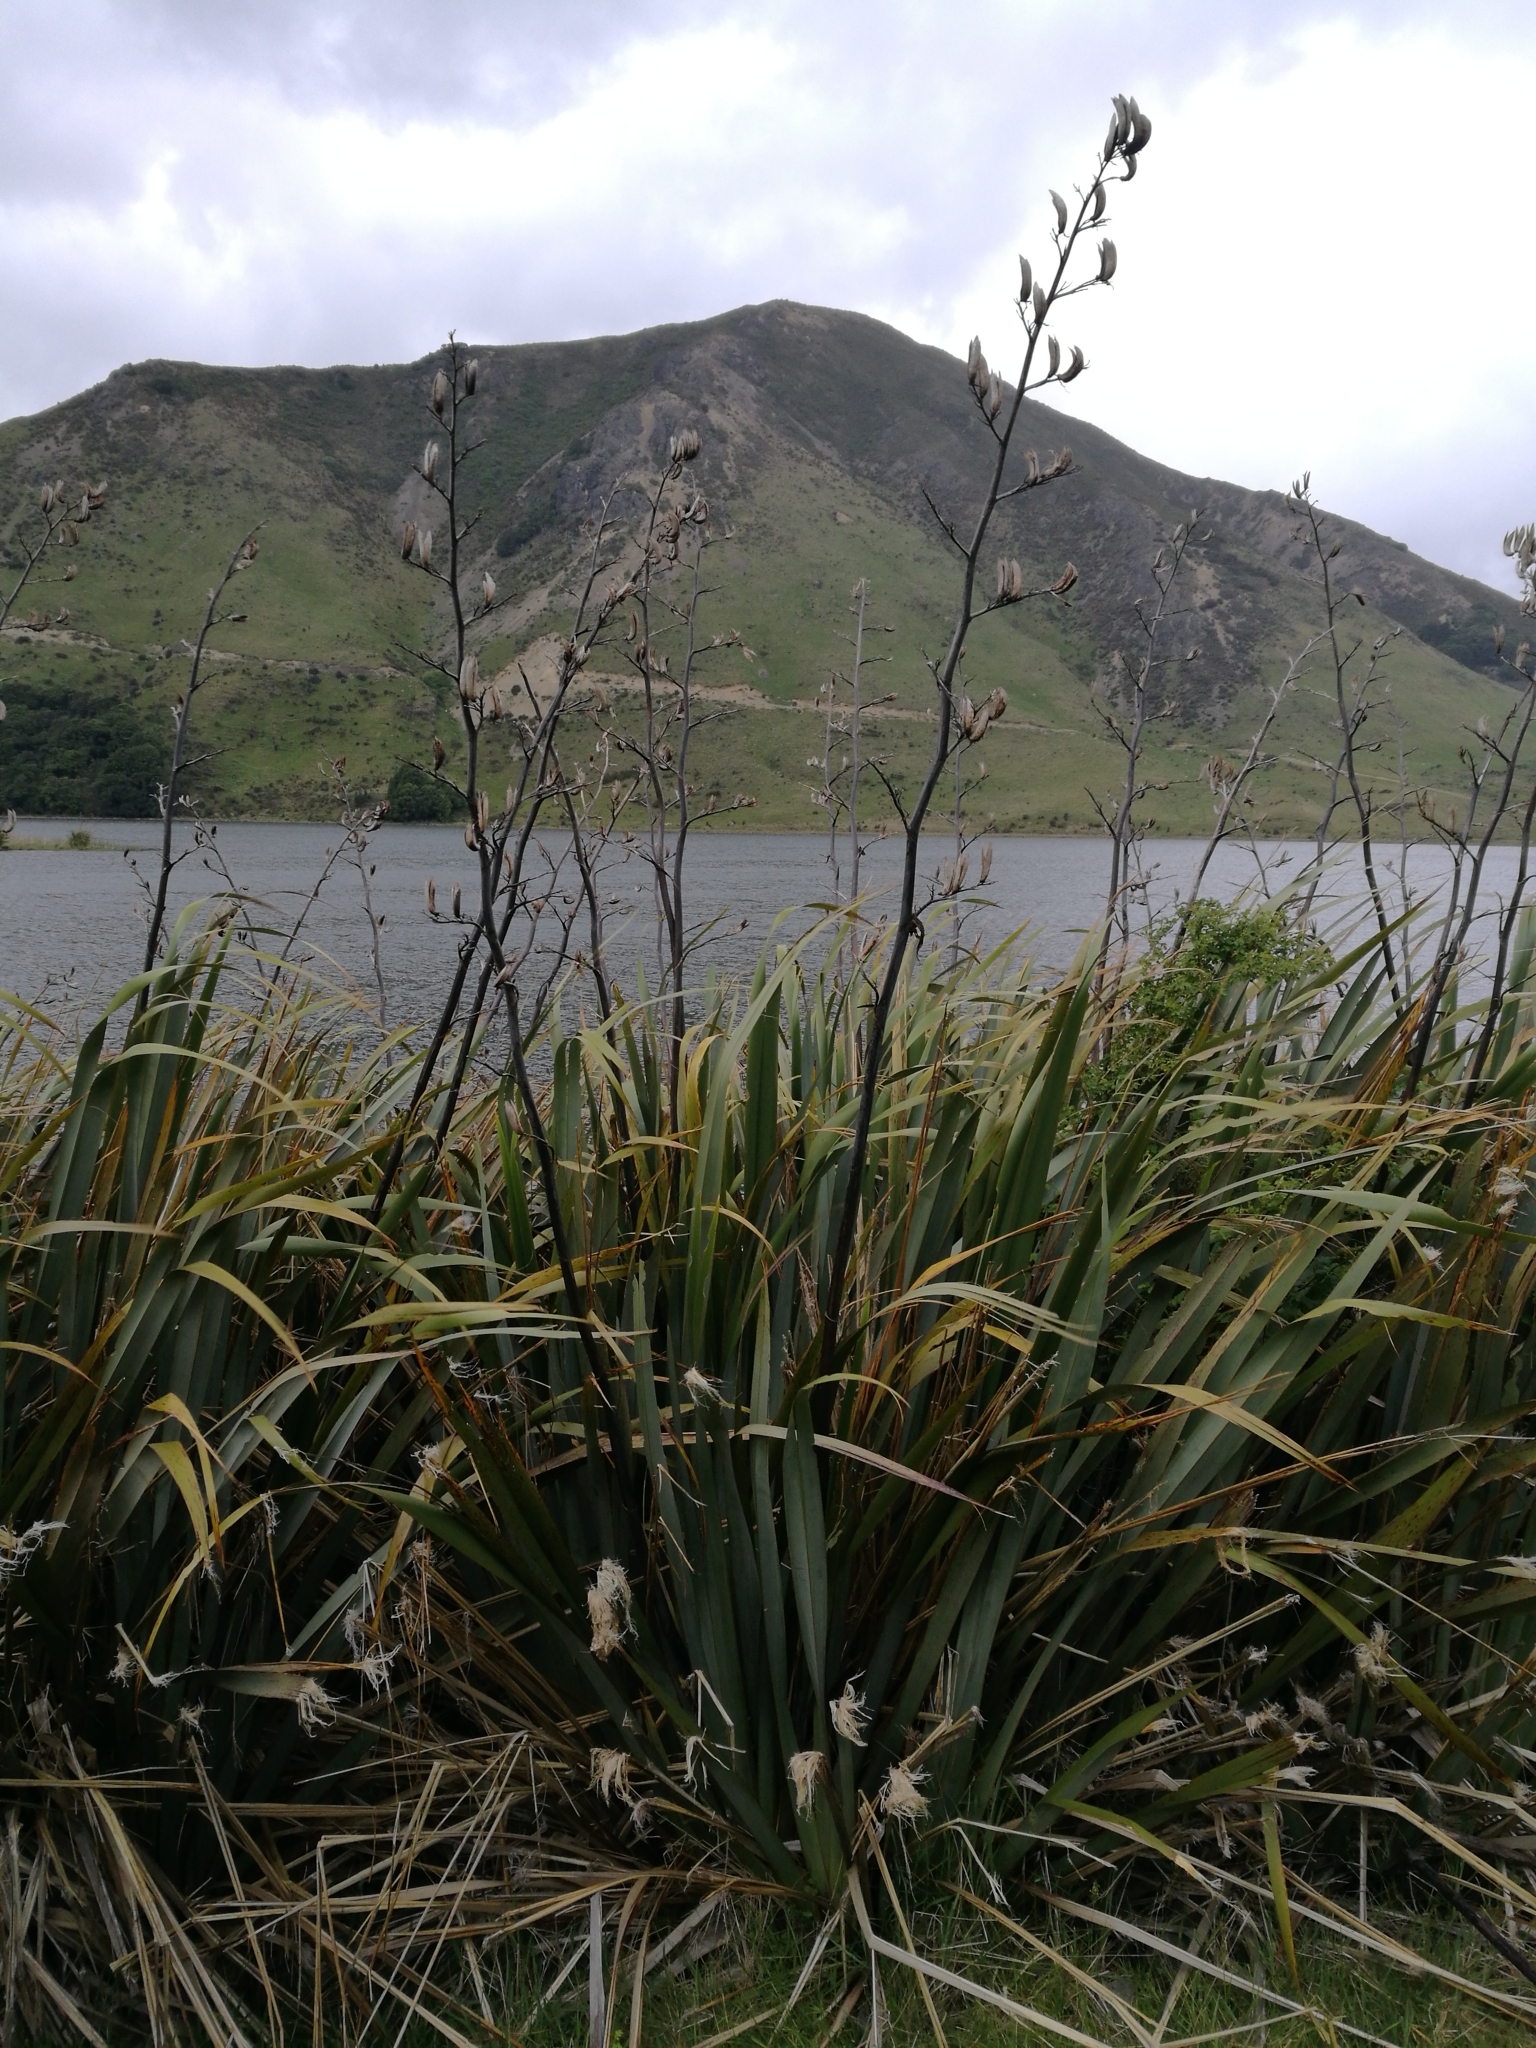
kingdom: Plantae
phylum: Tracheophyta
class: Liliopsida
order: Asparagales
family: Asphodelaceae
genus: Phormium
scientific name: Phormium tenax
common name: New zealand flax
